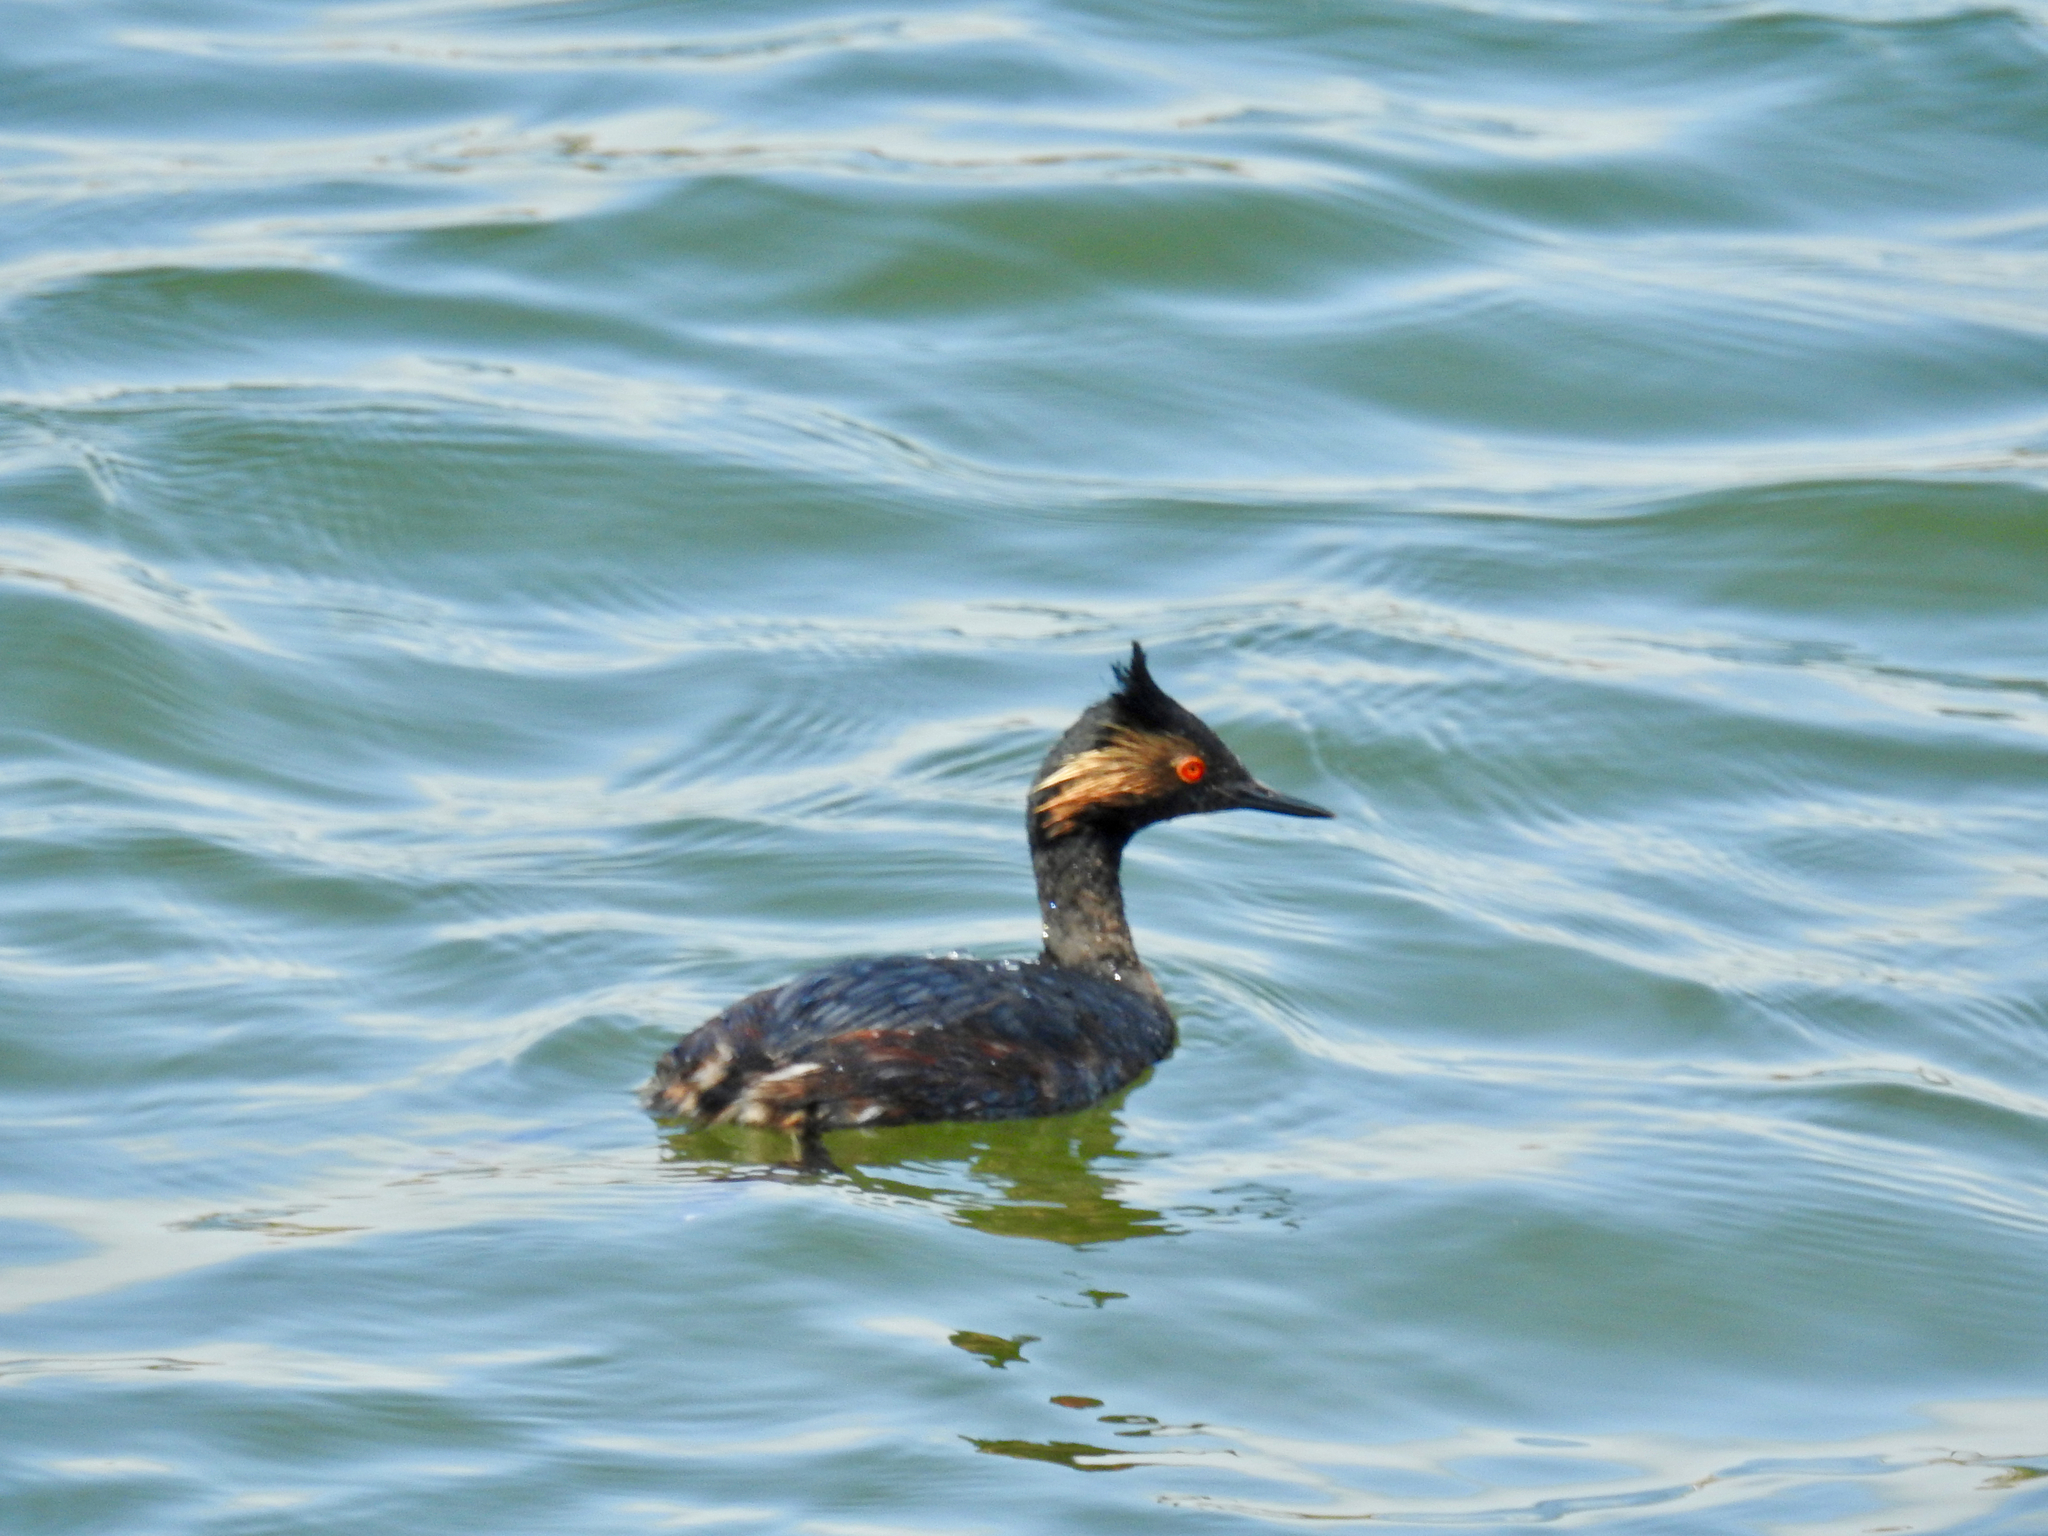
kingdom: Animalia
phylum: Chordata
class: Aves
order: Podicipediformes
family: Podicipedidae
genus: Podiceps
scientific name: Podiceps nigricollis
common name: Black-necked grebe
